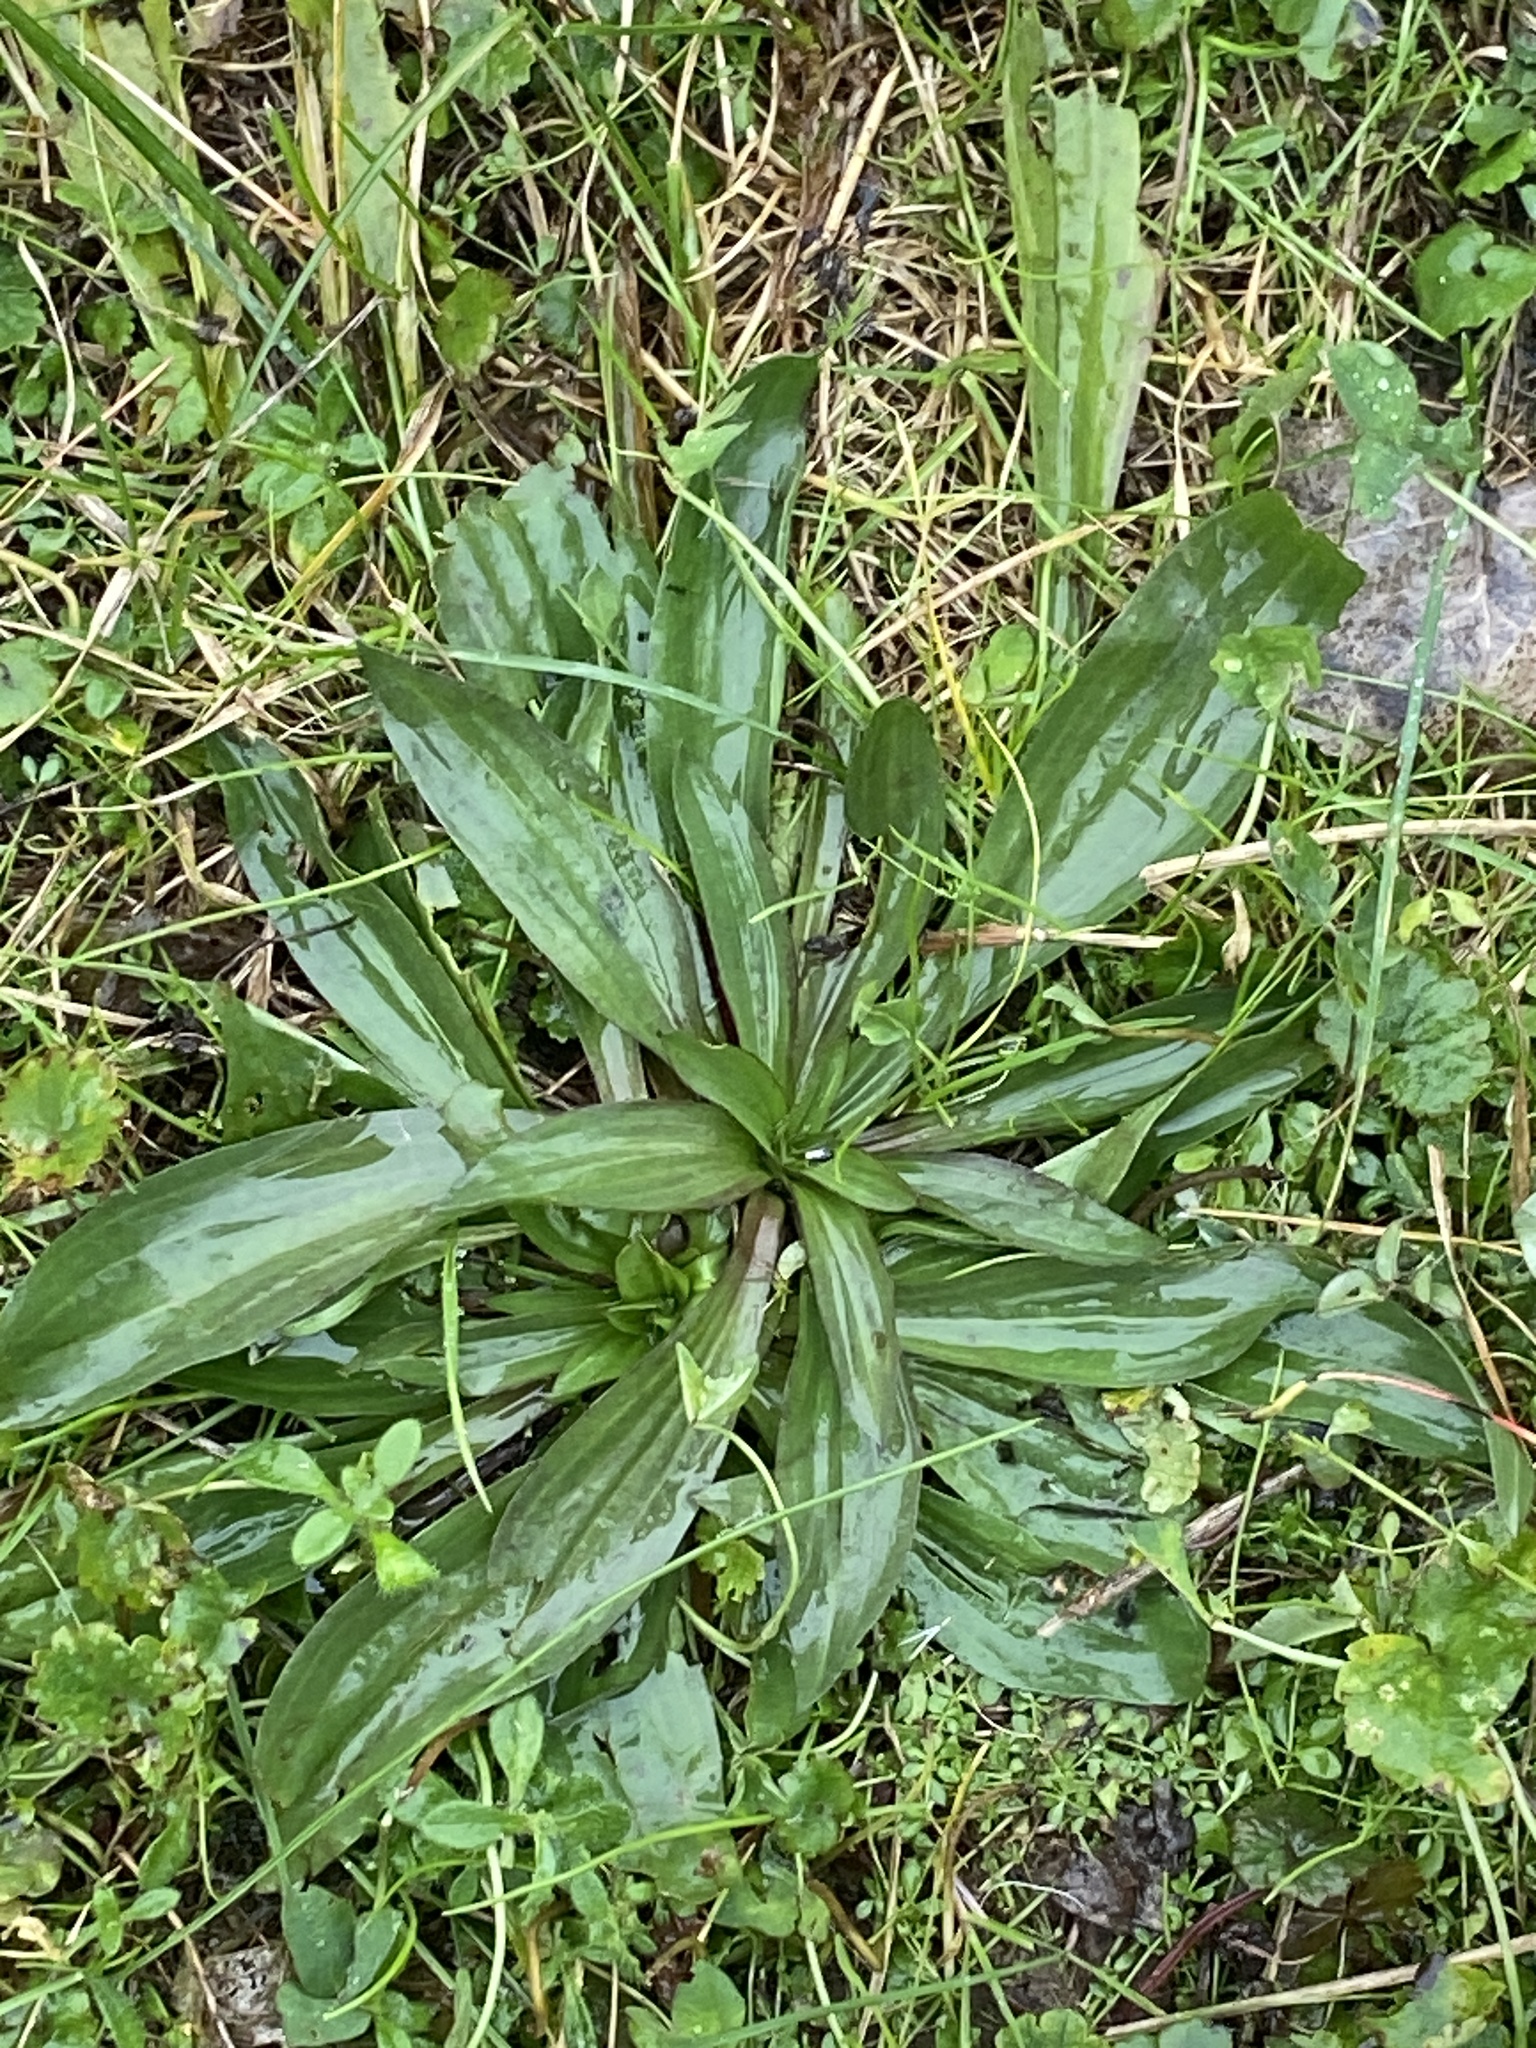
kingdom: Plantae
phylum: Tracheophyta
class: Magnoliopsida
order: Lamiales
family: Plantaginaceae
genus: Plantago
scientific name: Plantago lanceolata
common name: Ribwort plantain
